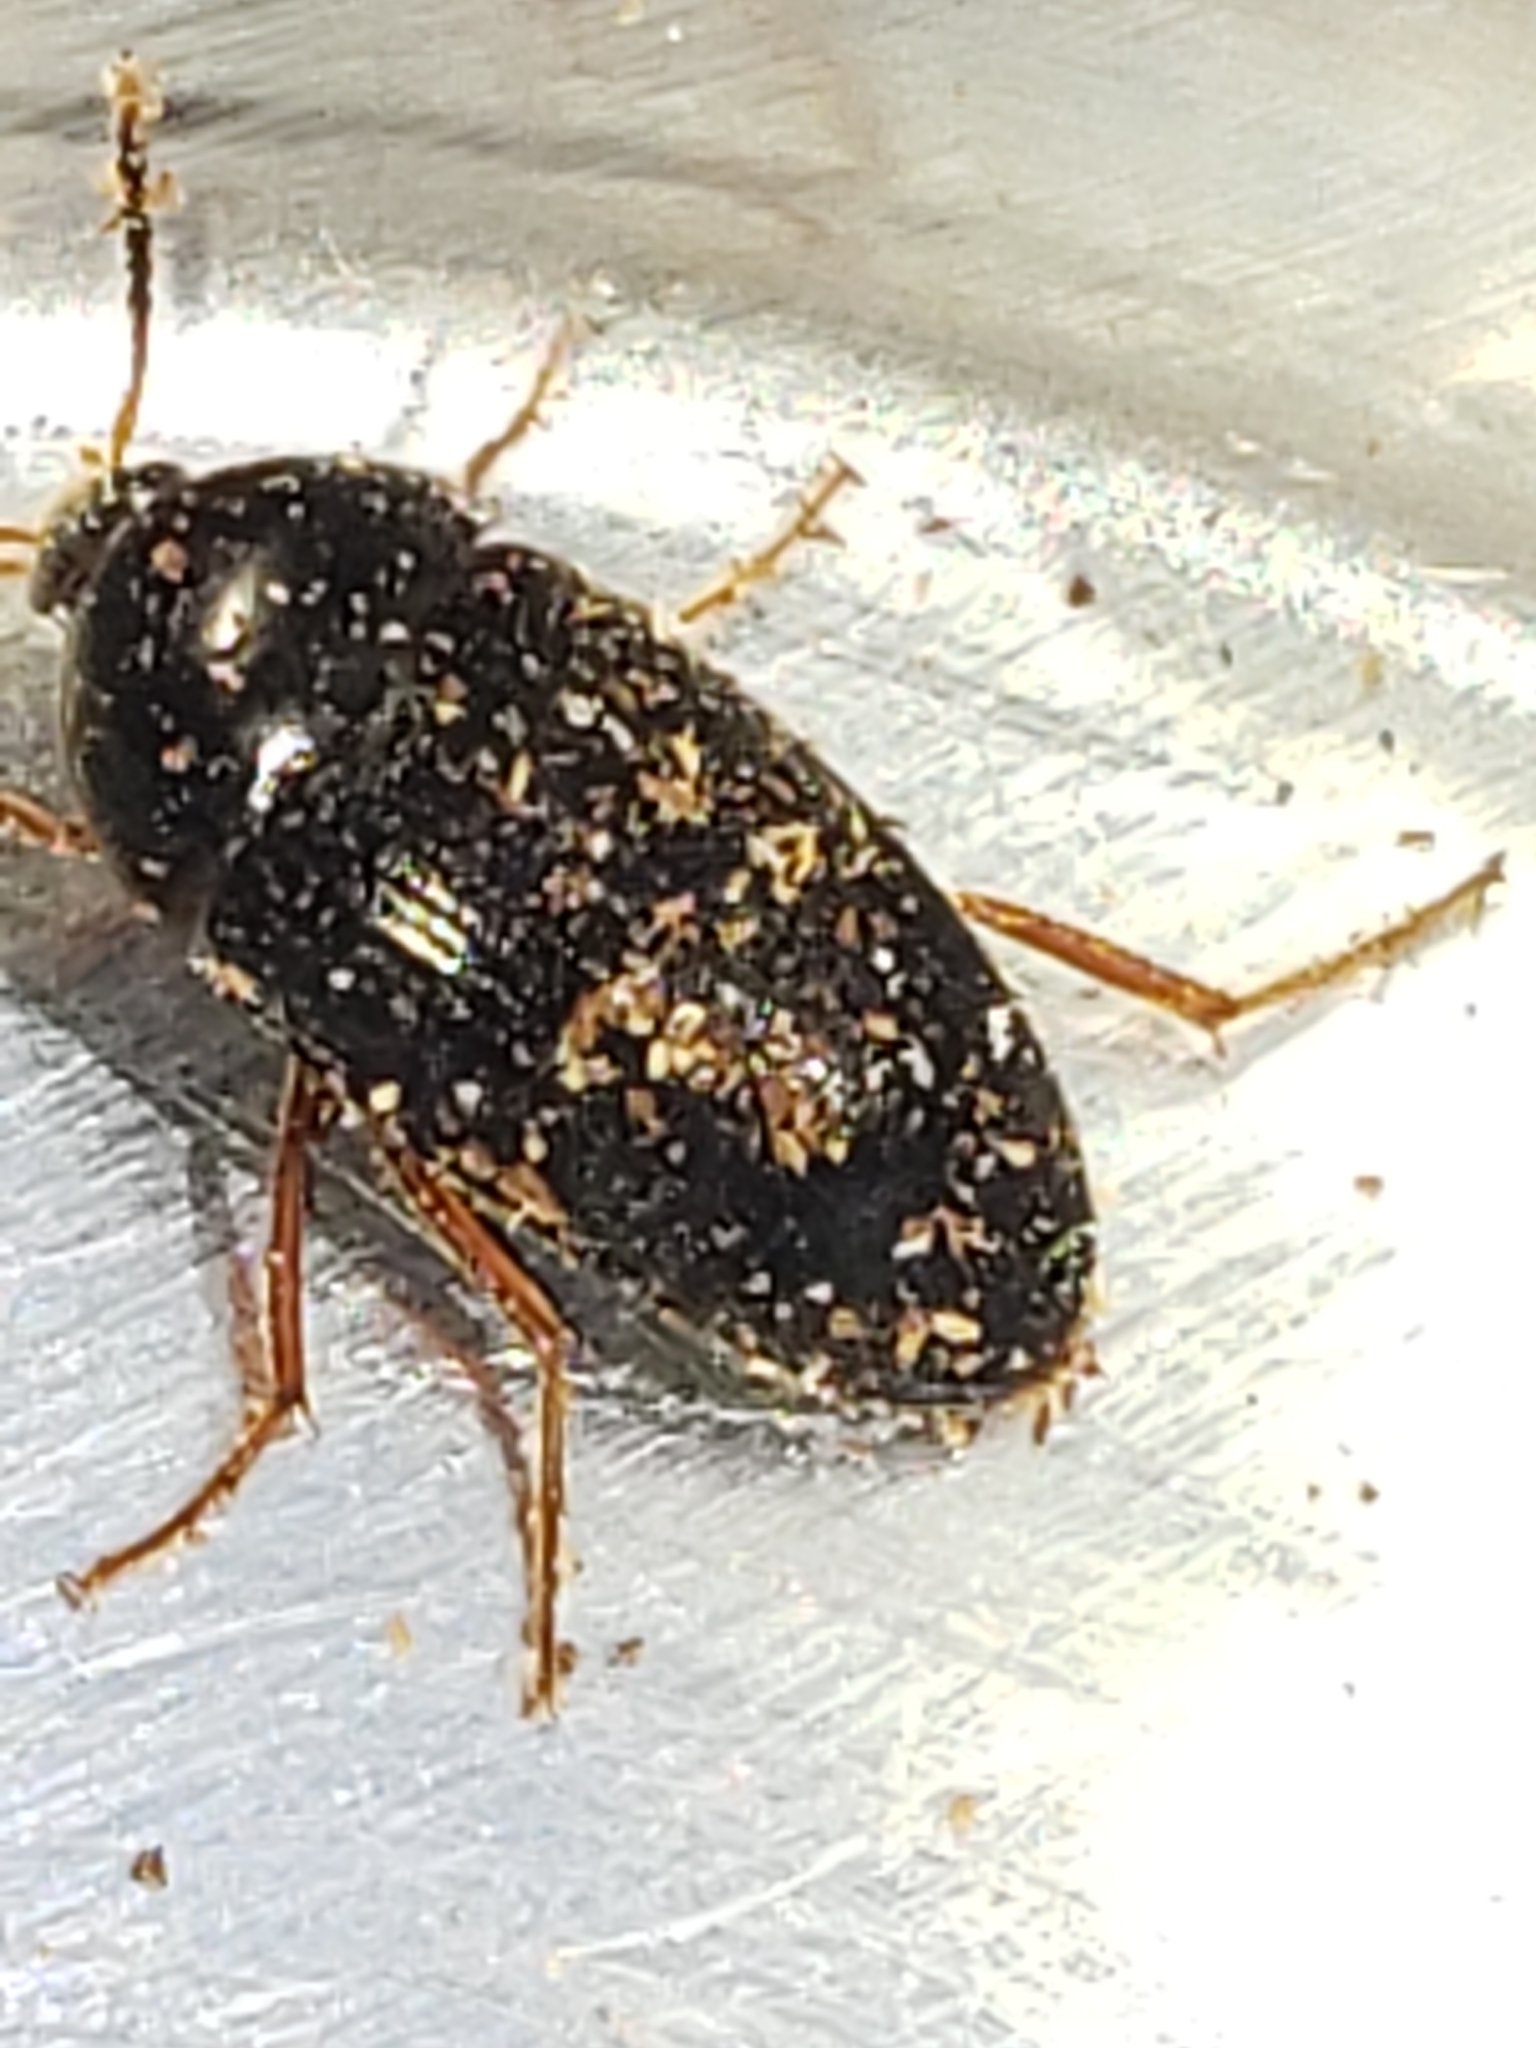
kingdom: Animalia
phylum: Arthropoda
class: Insecta
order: Coleoptera
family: Tetratomidae
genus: Eustrophopsis
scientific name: Eustrophopsis bicolor
